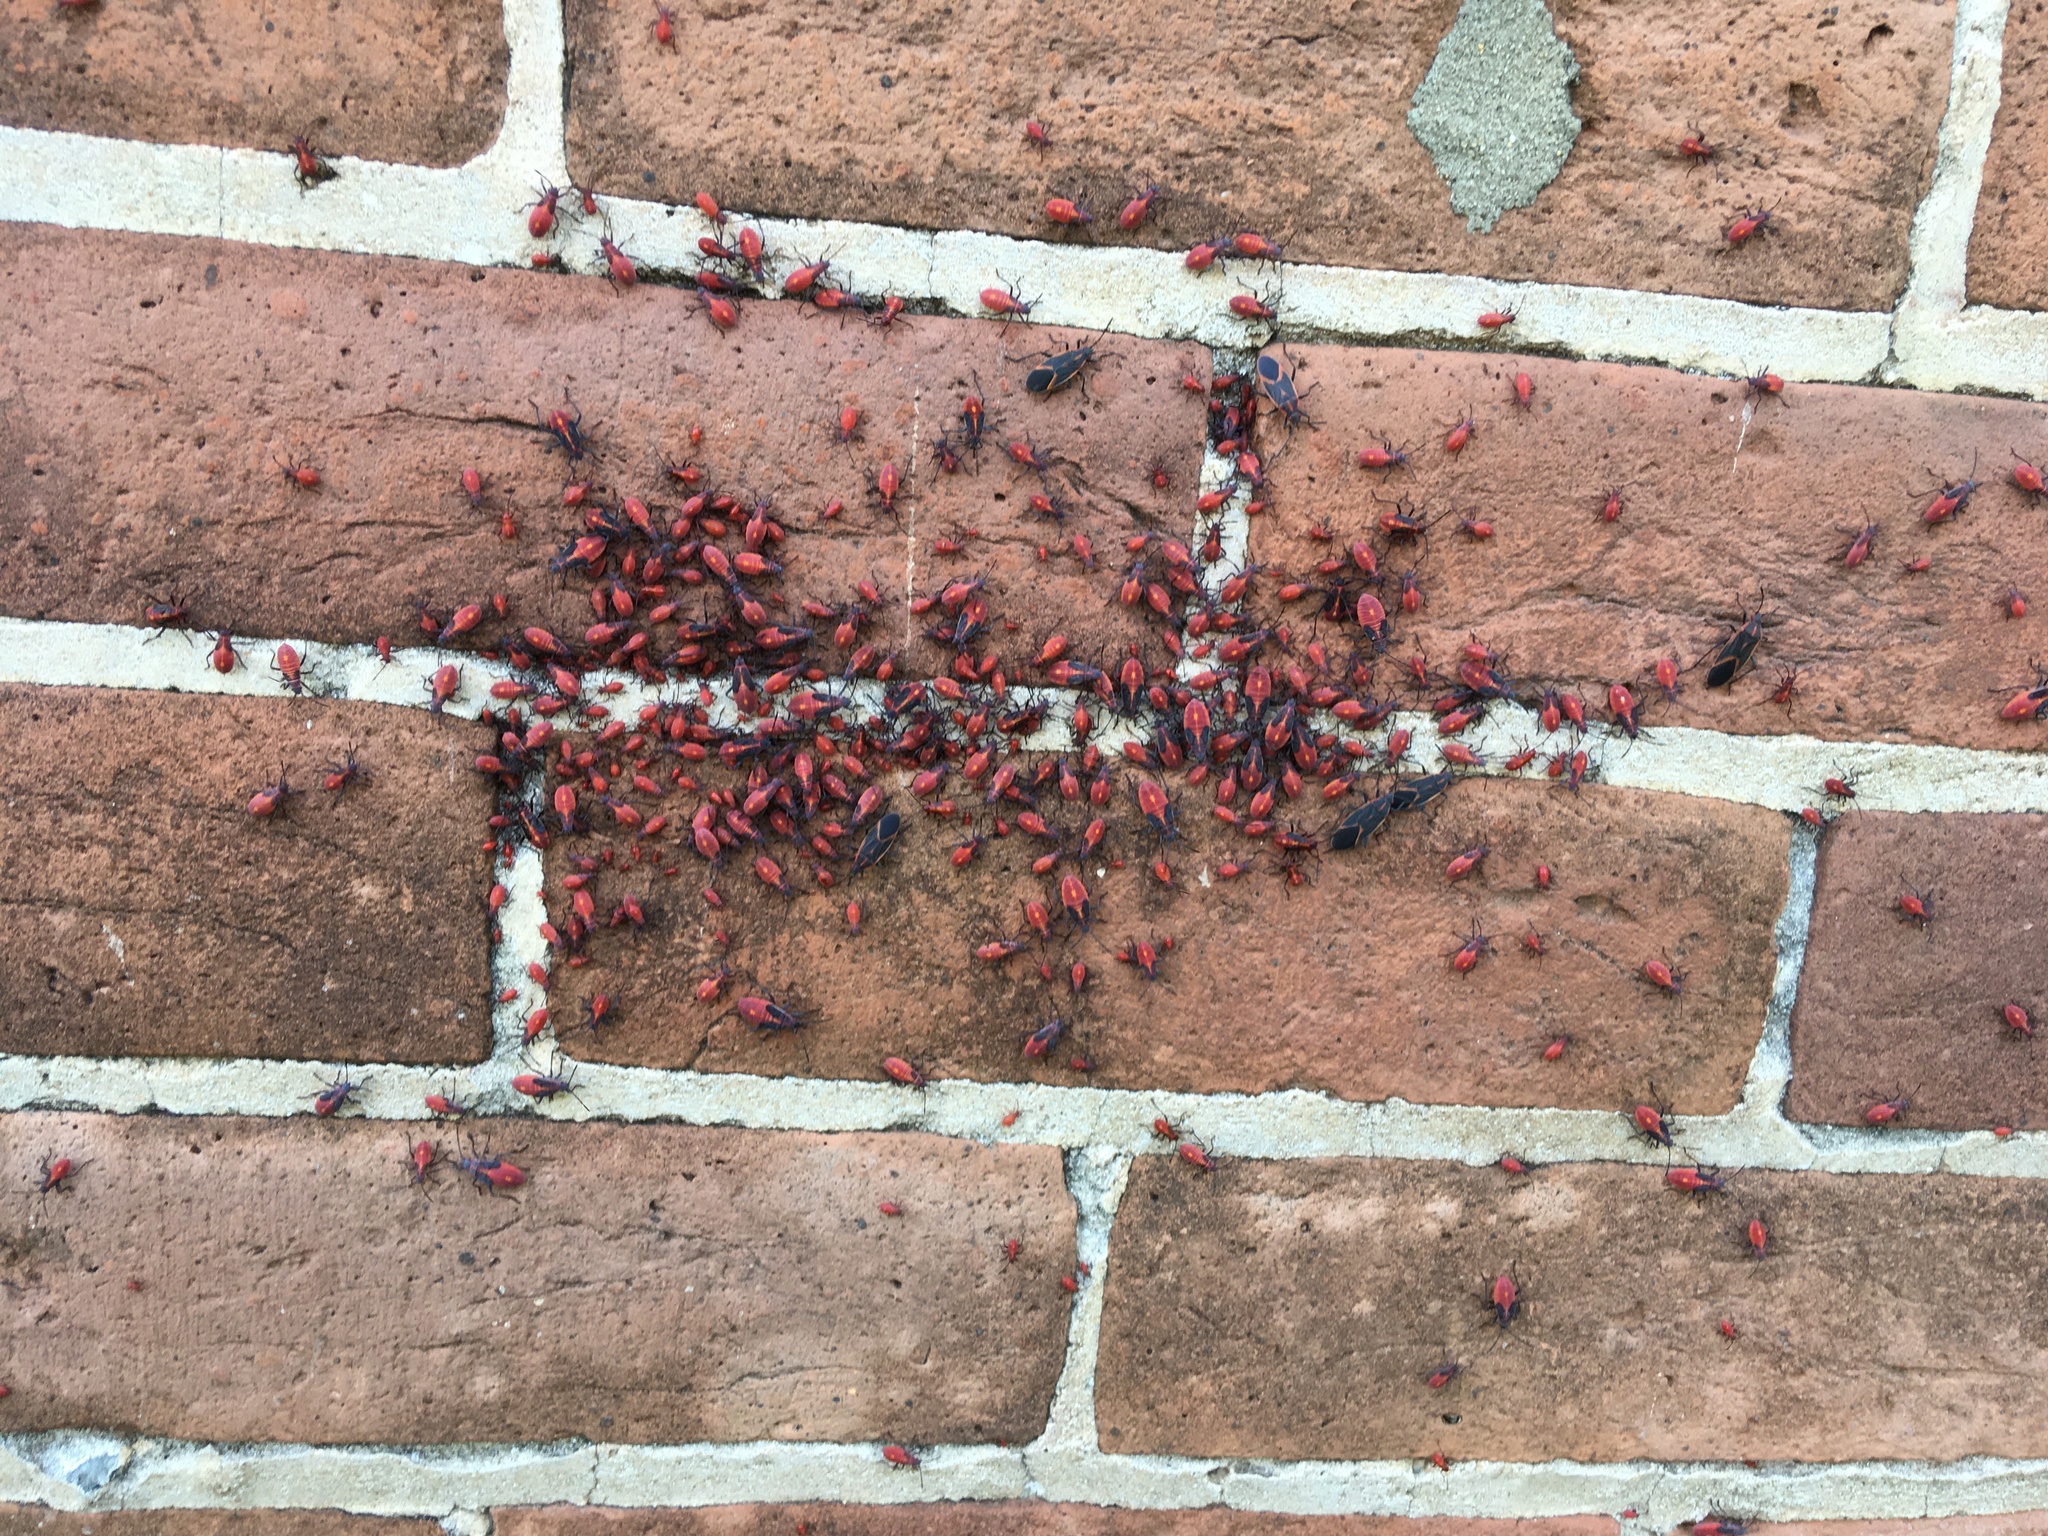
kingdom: Animalia
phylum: Arthropoda
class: Insecta
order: Hemiptera
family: Rhopalidae
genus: Boisea
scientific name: Boisea trivittata
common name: Boxelder bug
